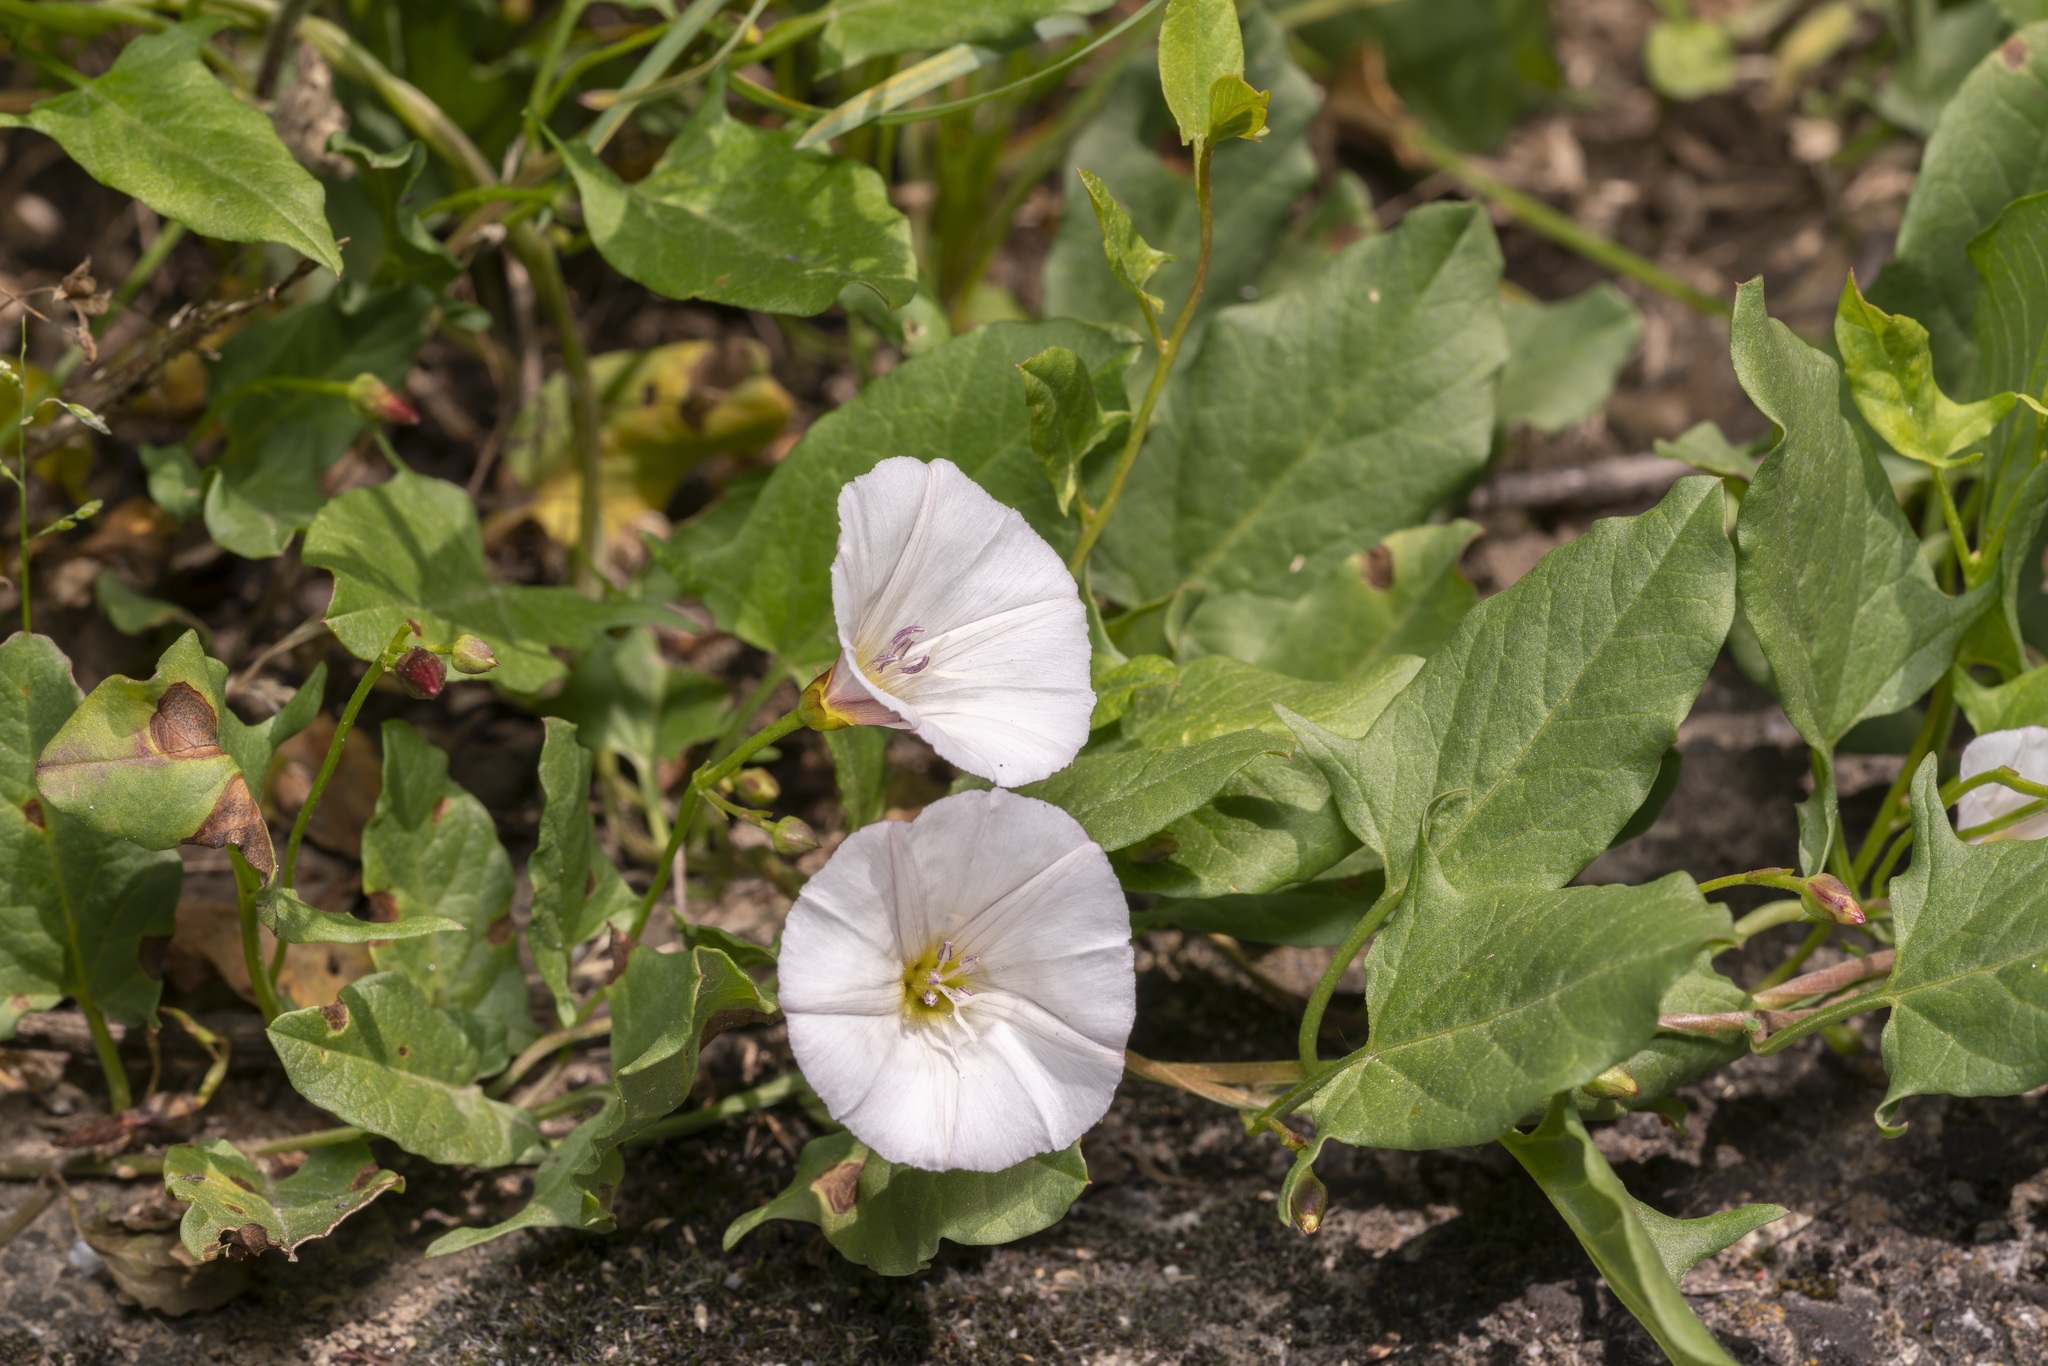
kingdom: Plantae
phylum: Tracheophyta
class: Magnoliopsida
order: Solanales
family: Convolvulaceae
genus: Convolvulus
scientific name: Convolvulus arvensis
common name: Field bindweed
